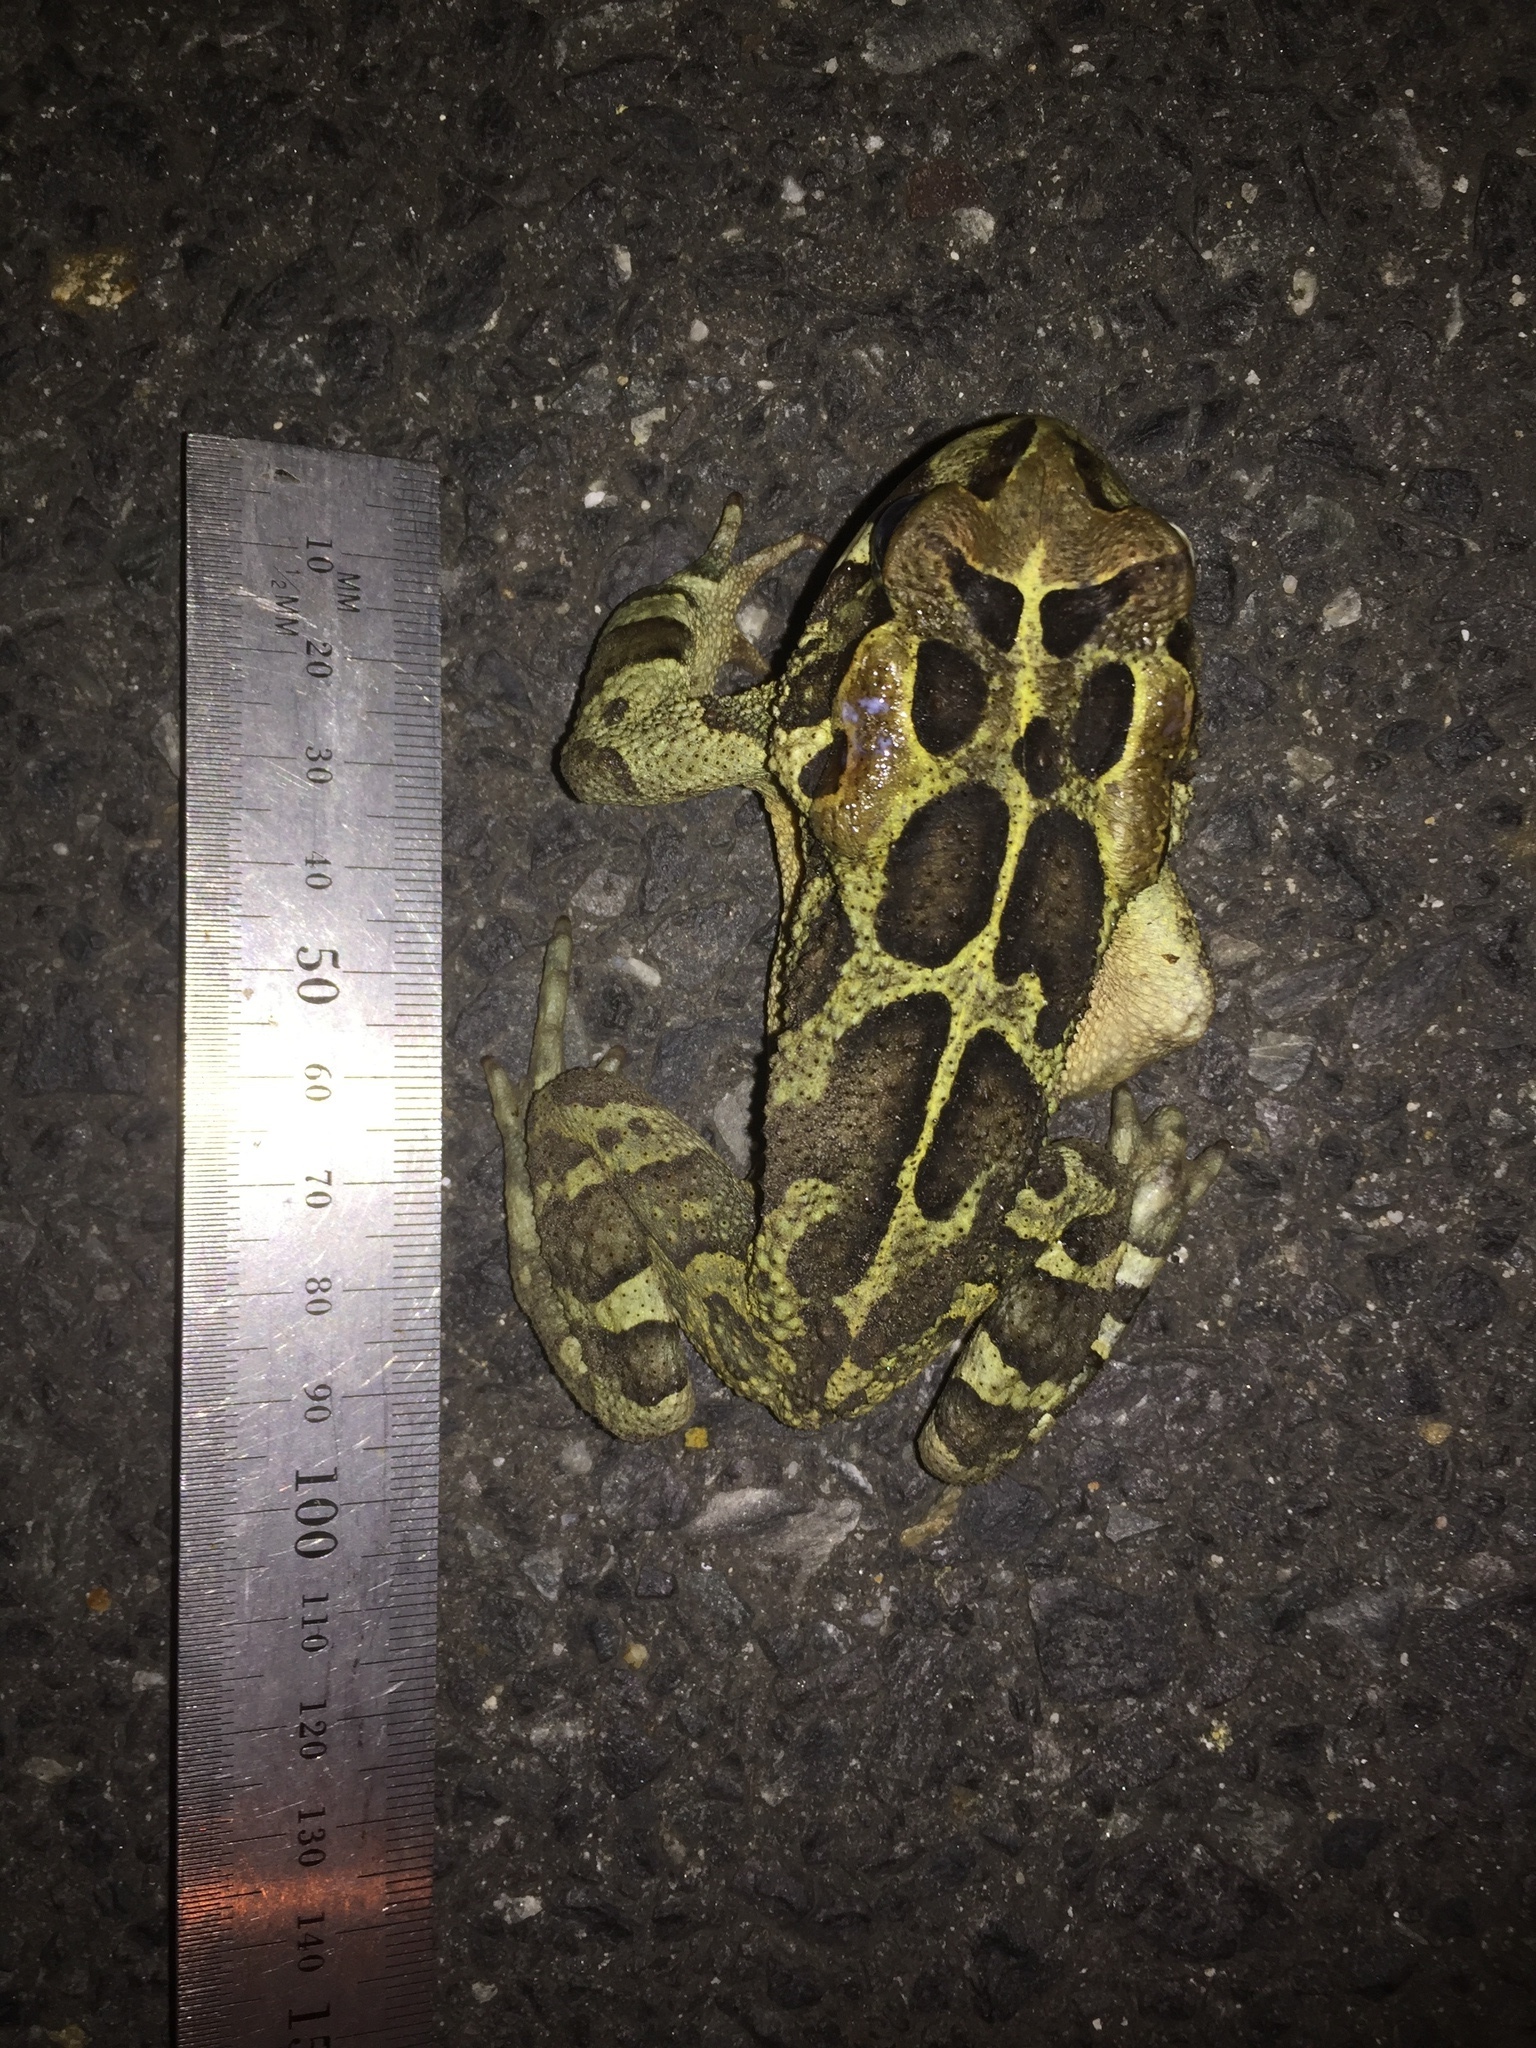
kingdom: Animalia
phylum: Chordata
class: Amphibia
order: Anura
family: Bufonidae
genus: Sclerophrys
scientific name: Sclerophrys pantherina
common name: Panther toad
